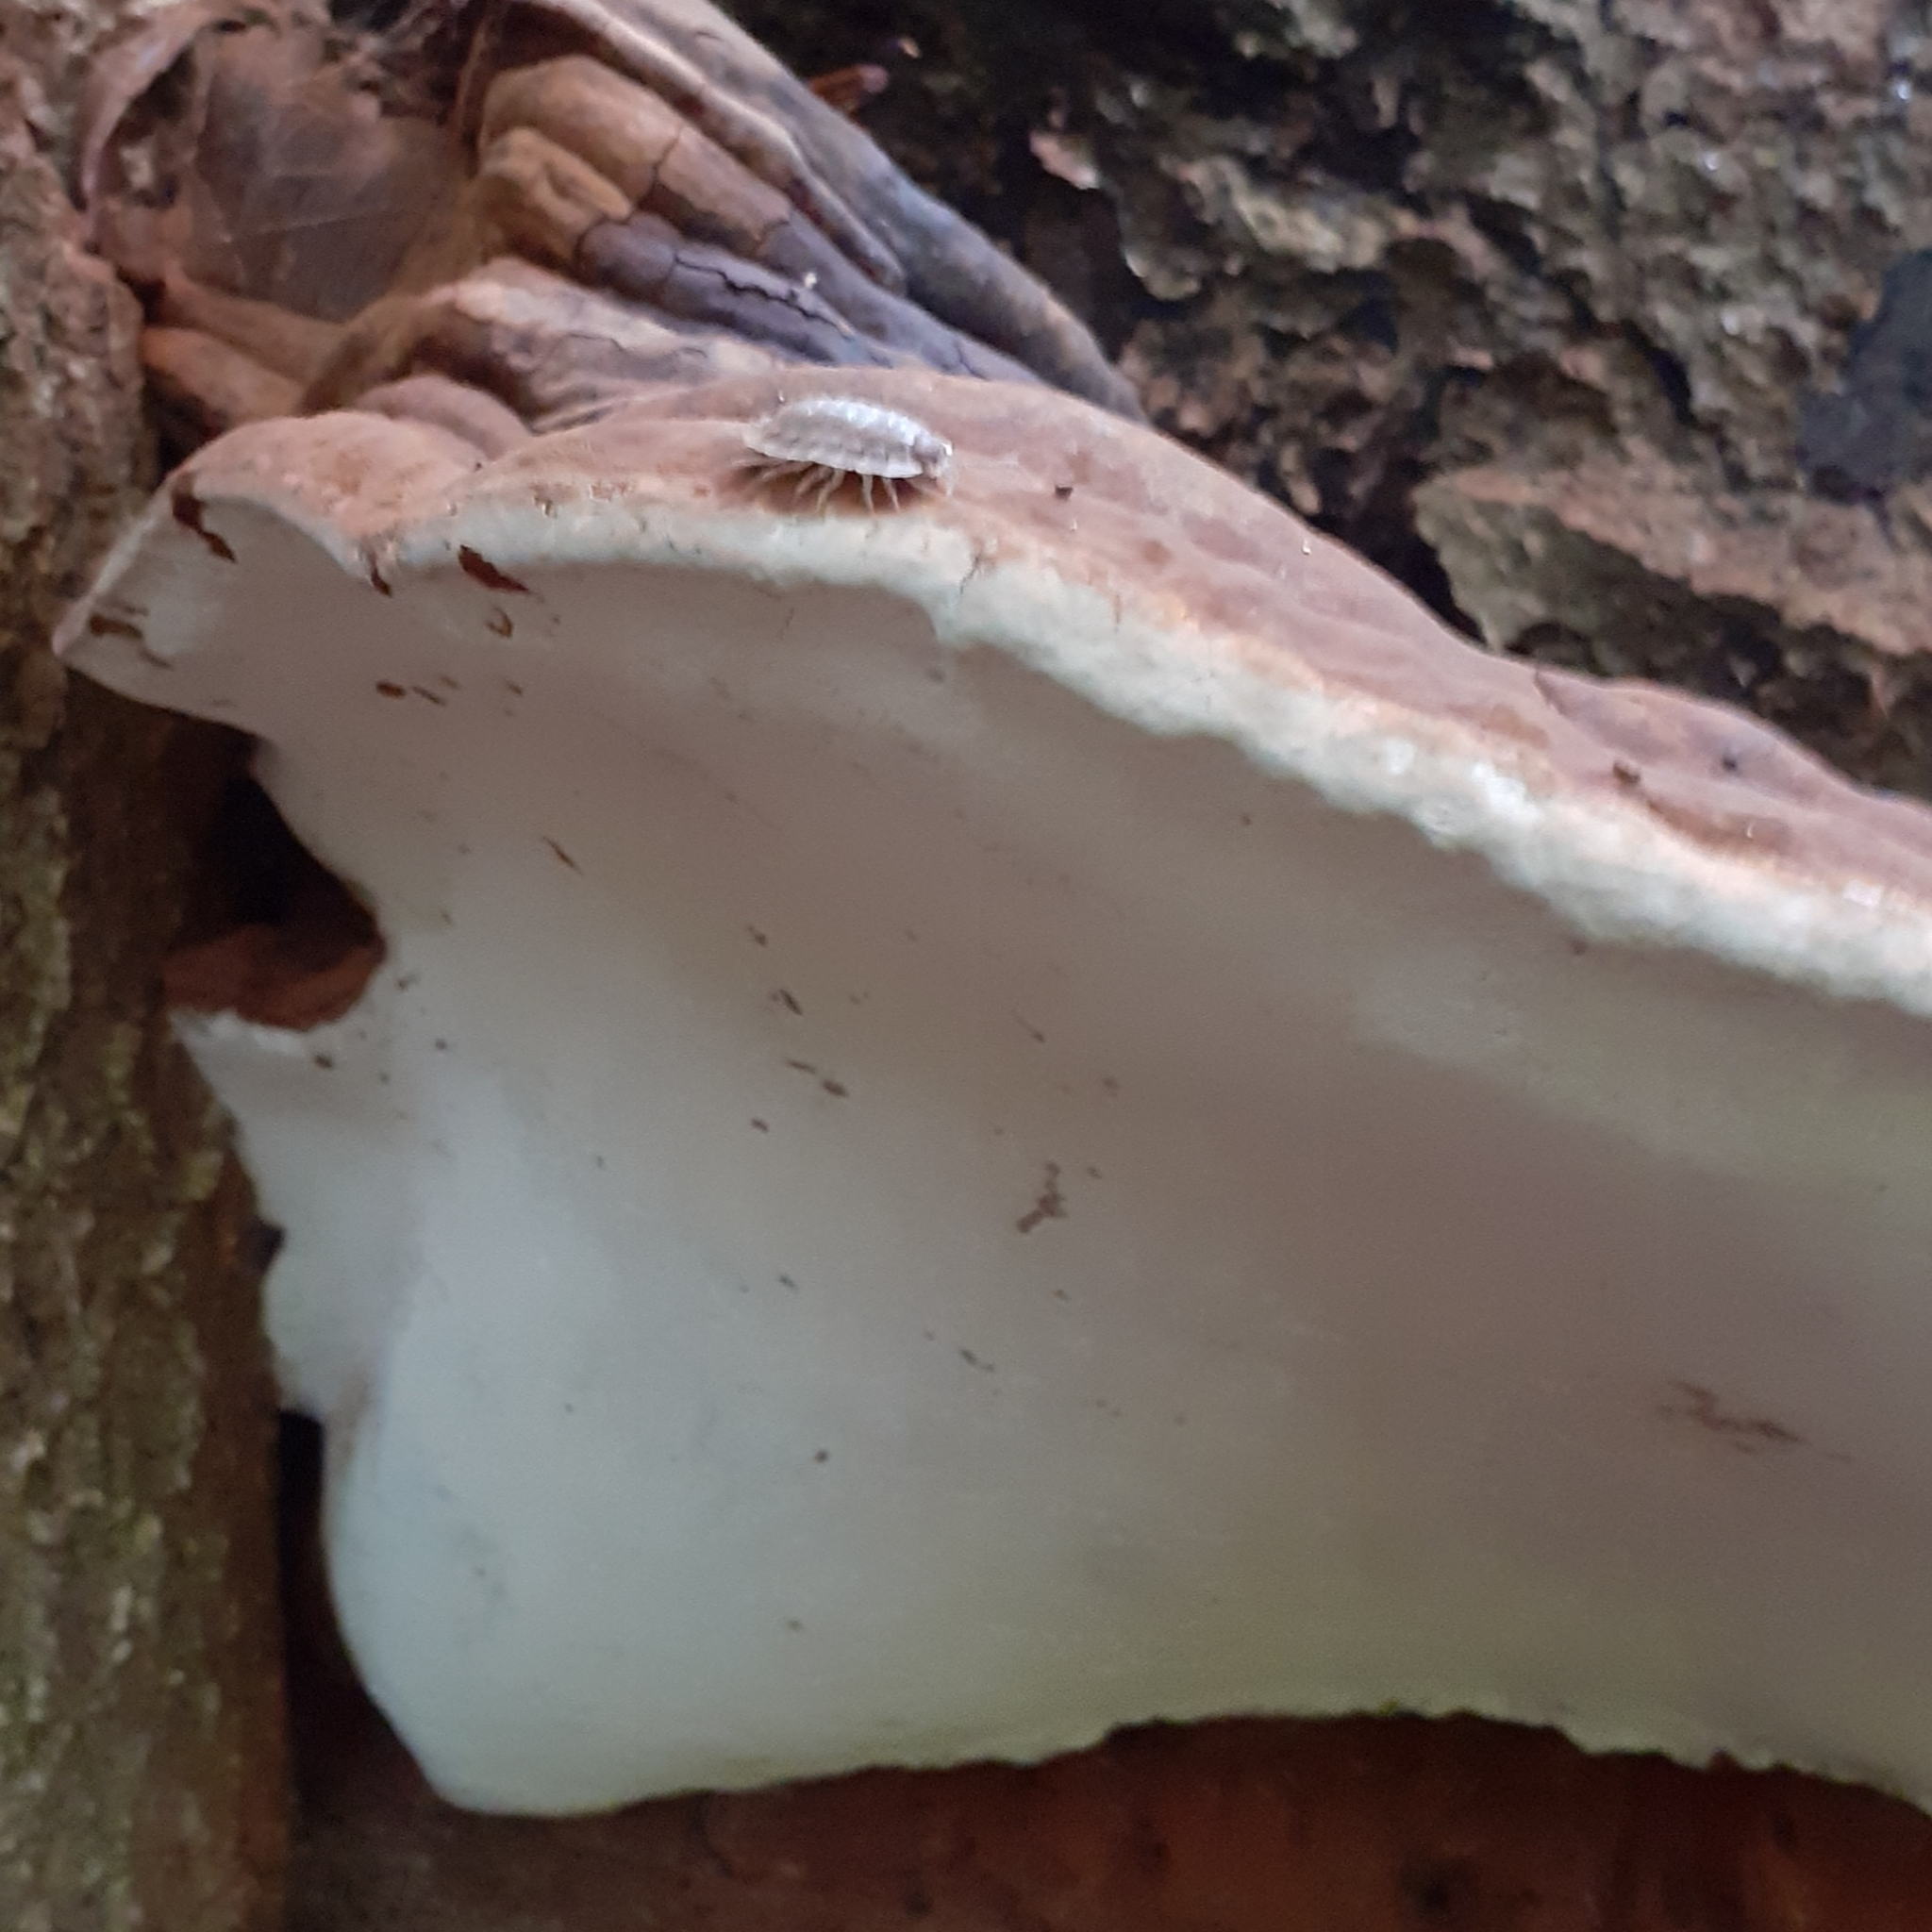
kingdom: Fungi
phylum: Basidiomycota
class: Agaricomycetes
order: Polyporales
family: Polyporaceae
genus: Ganoderma
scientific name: Ganoderma applanatum
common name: Artist's bracket
